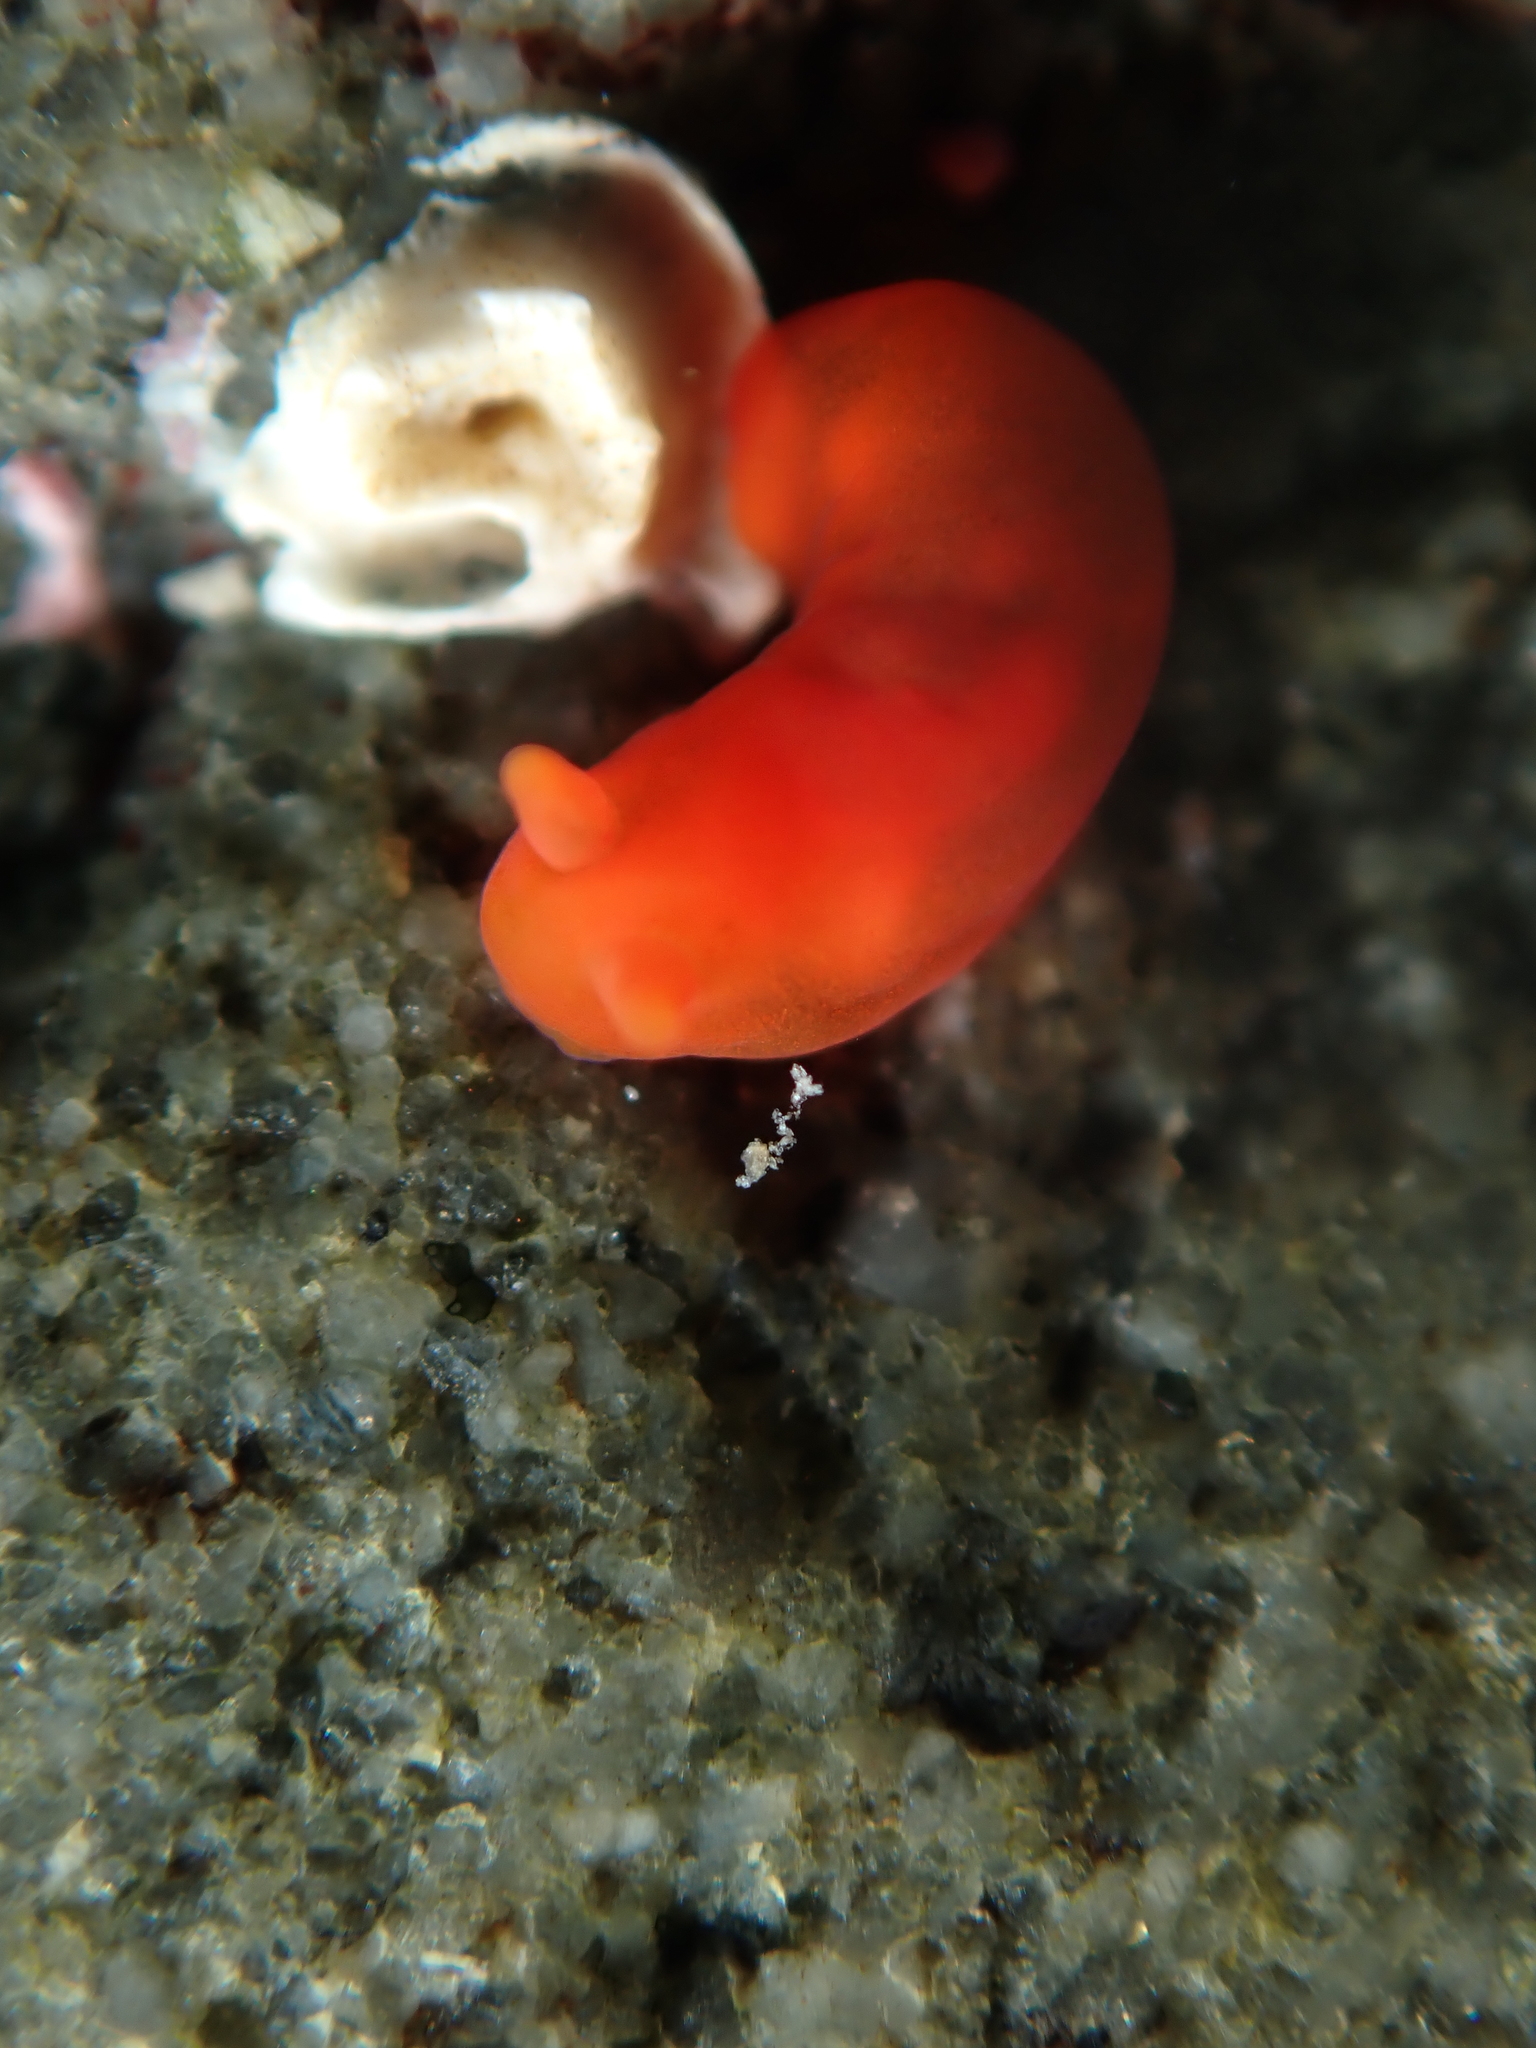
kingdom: Animalia
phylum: Mollusca
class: Gastropoda
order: Nudibranchia
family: Okadaiidae
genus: Vayssierea
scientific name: Vayssierea cinnabarea
